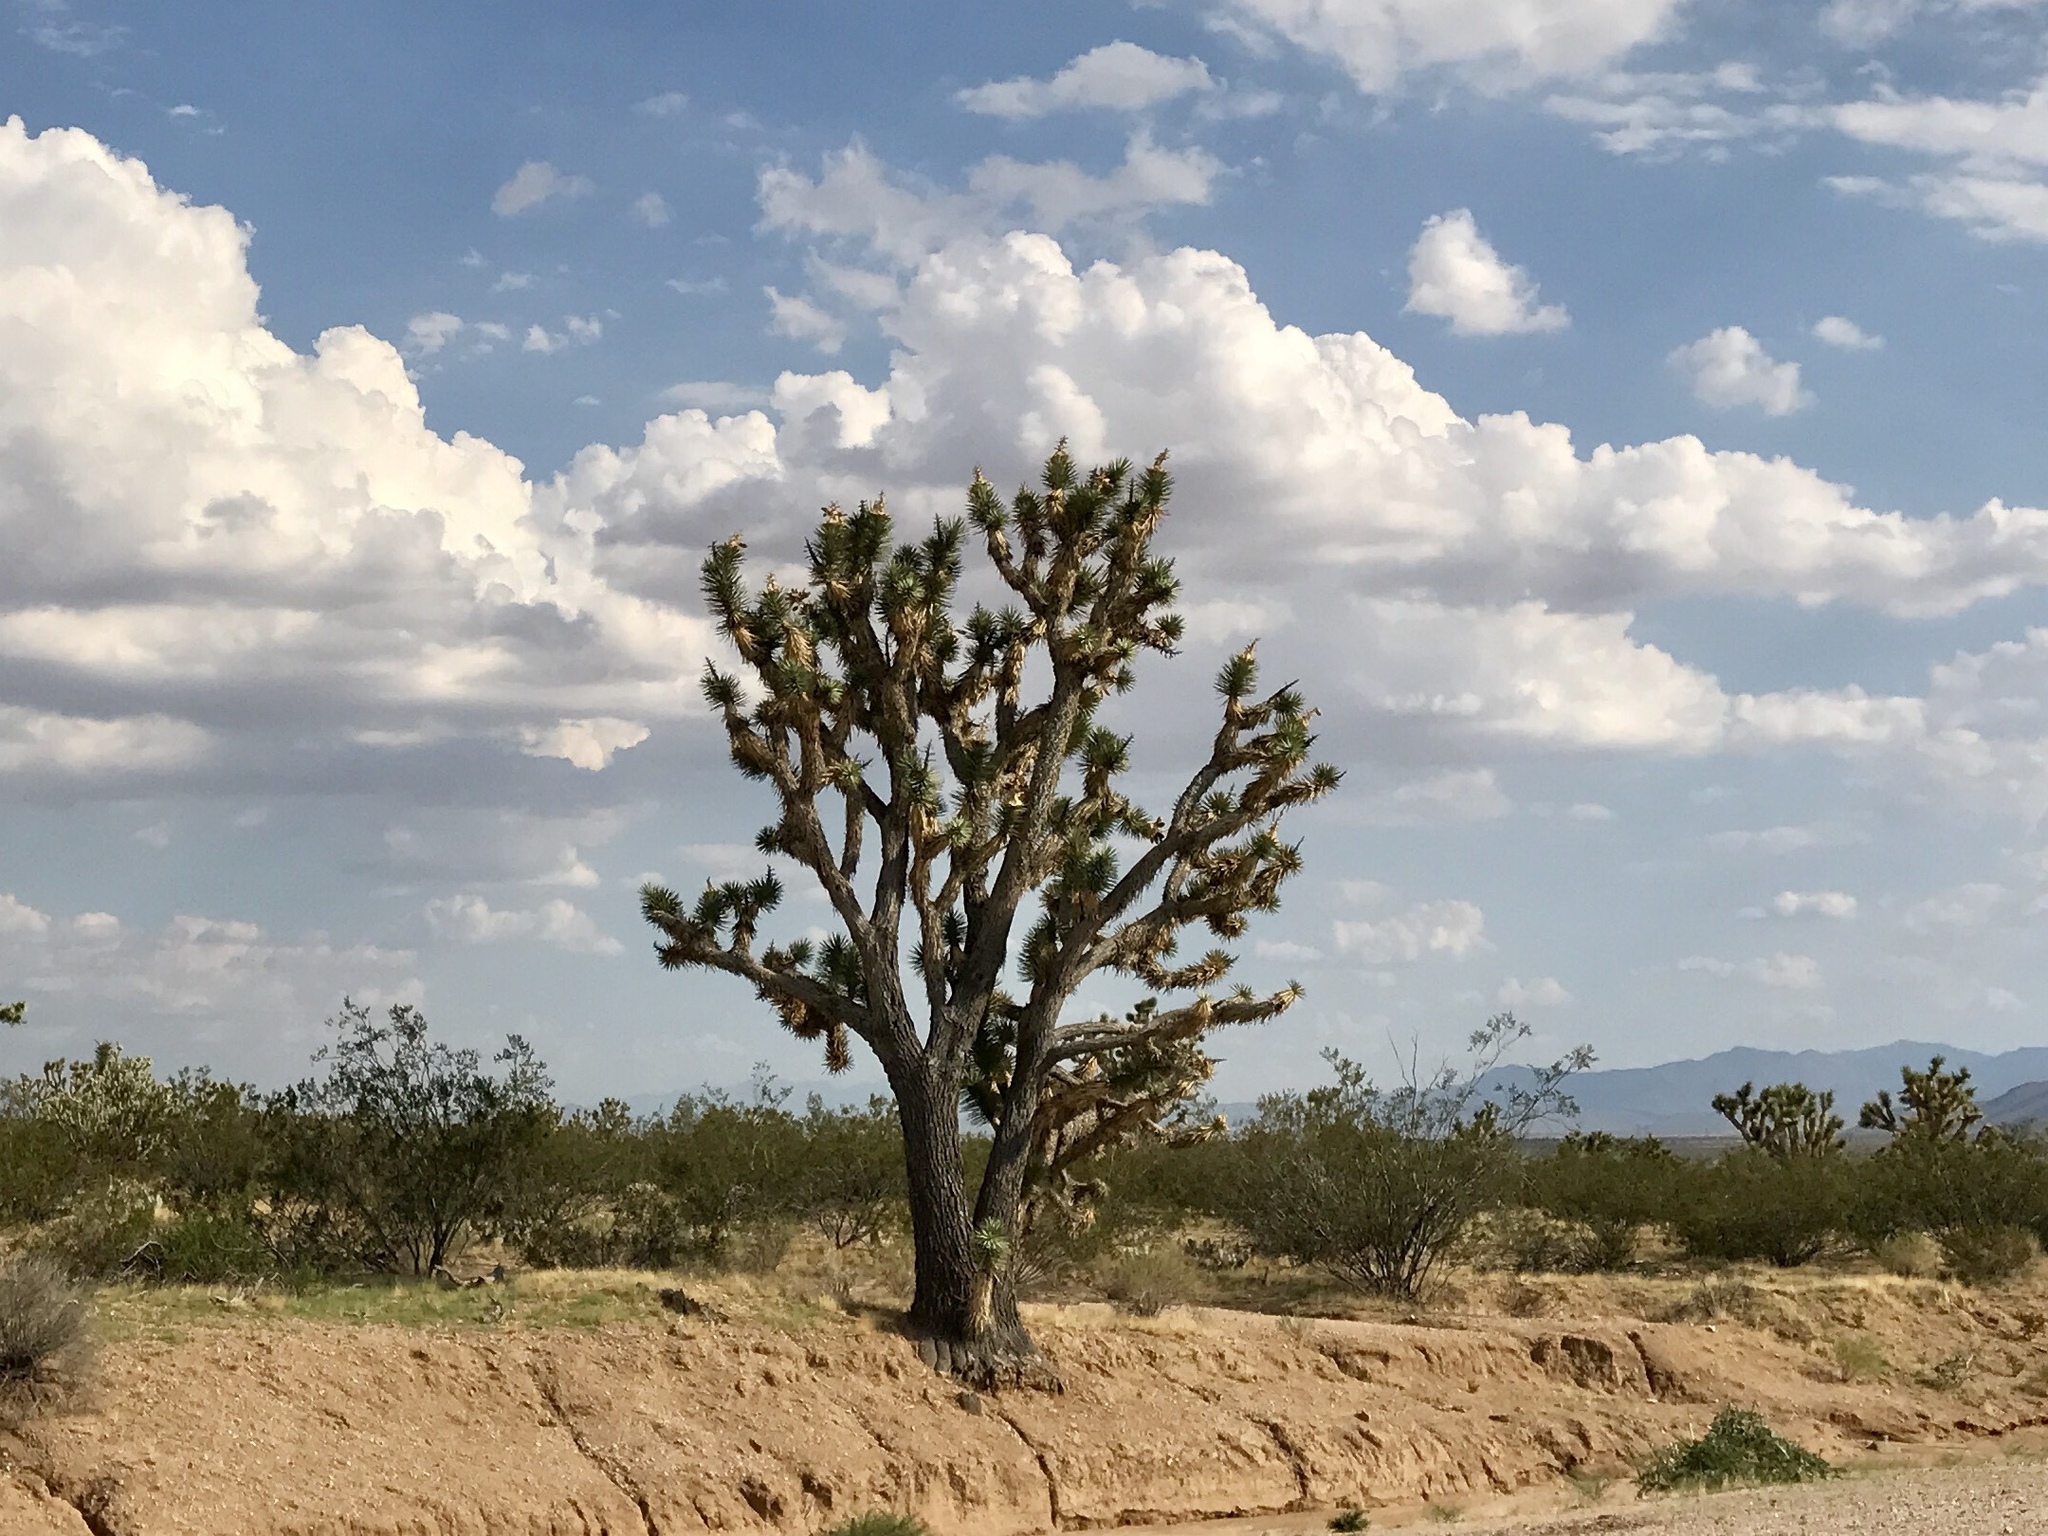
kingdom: Plantae
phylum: Tracheophyta
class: Liliopsida
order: Asparagales
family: Asparagaceae
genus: Yucca
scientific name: Yucca brevifolia
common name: Joshua tree
